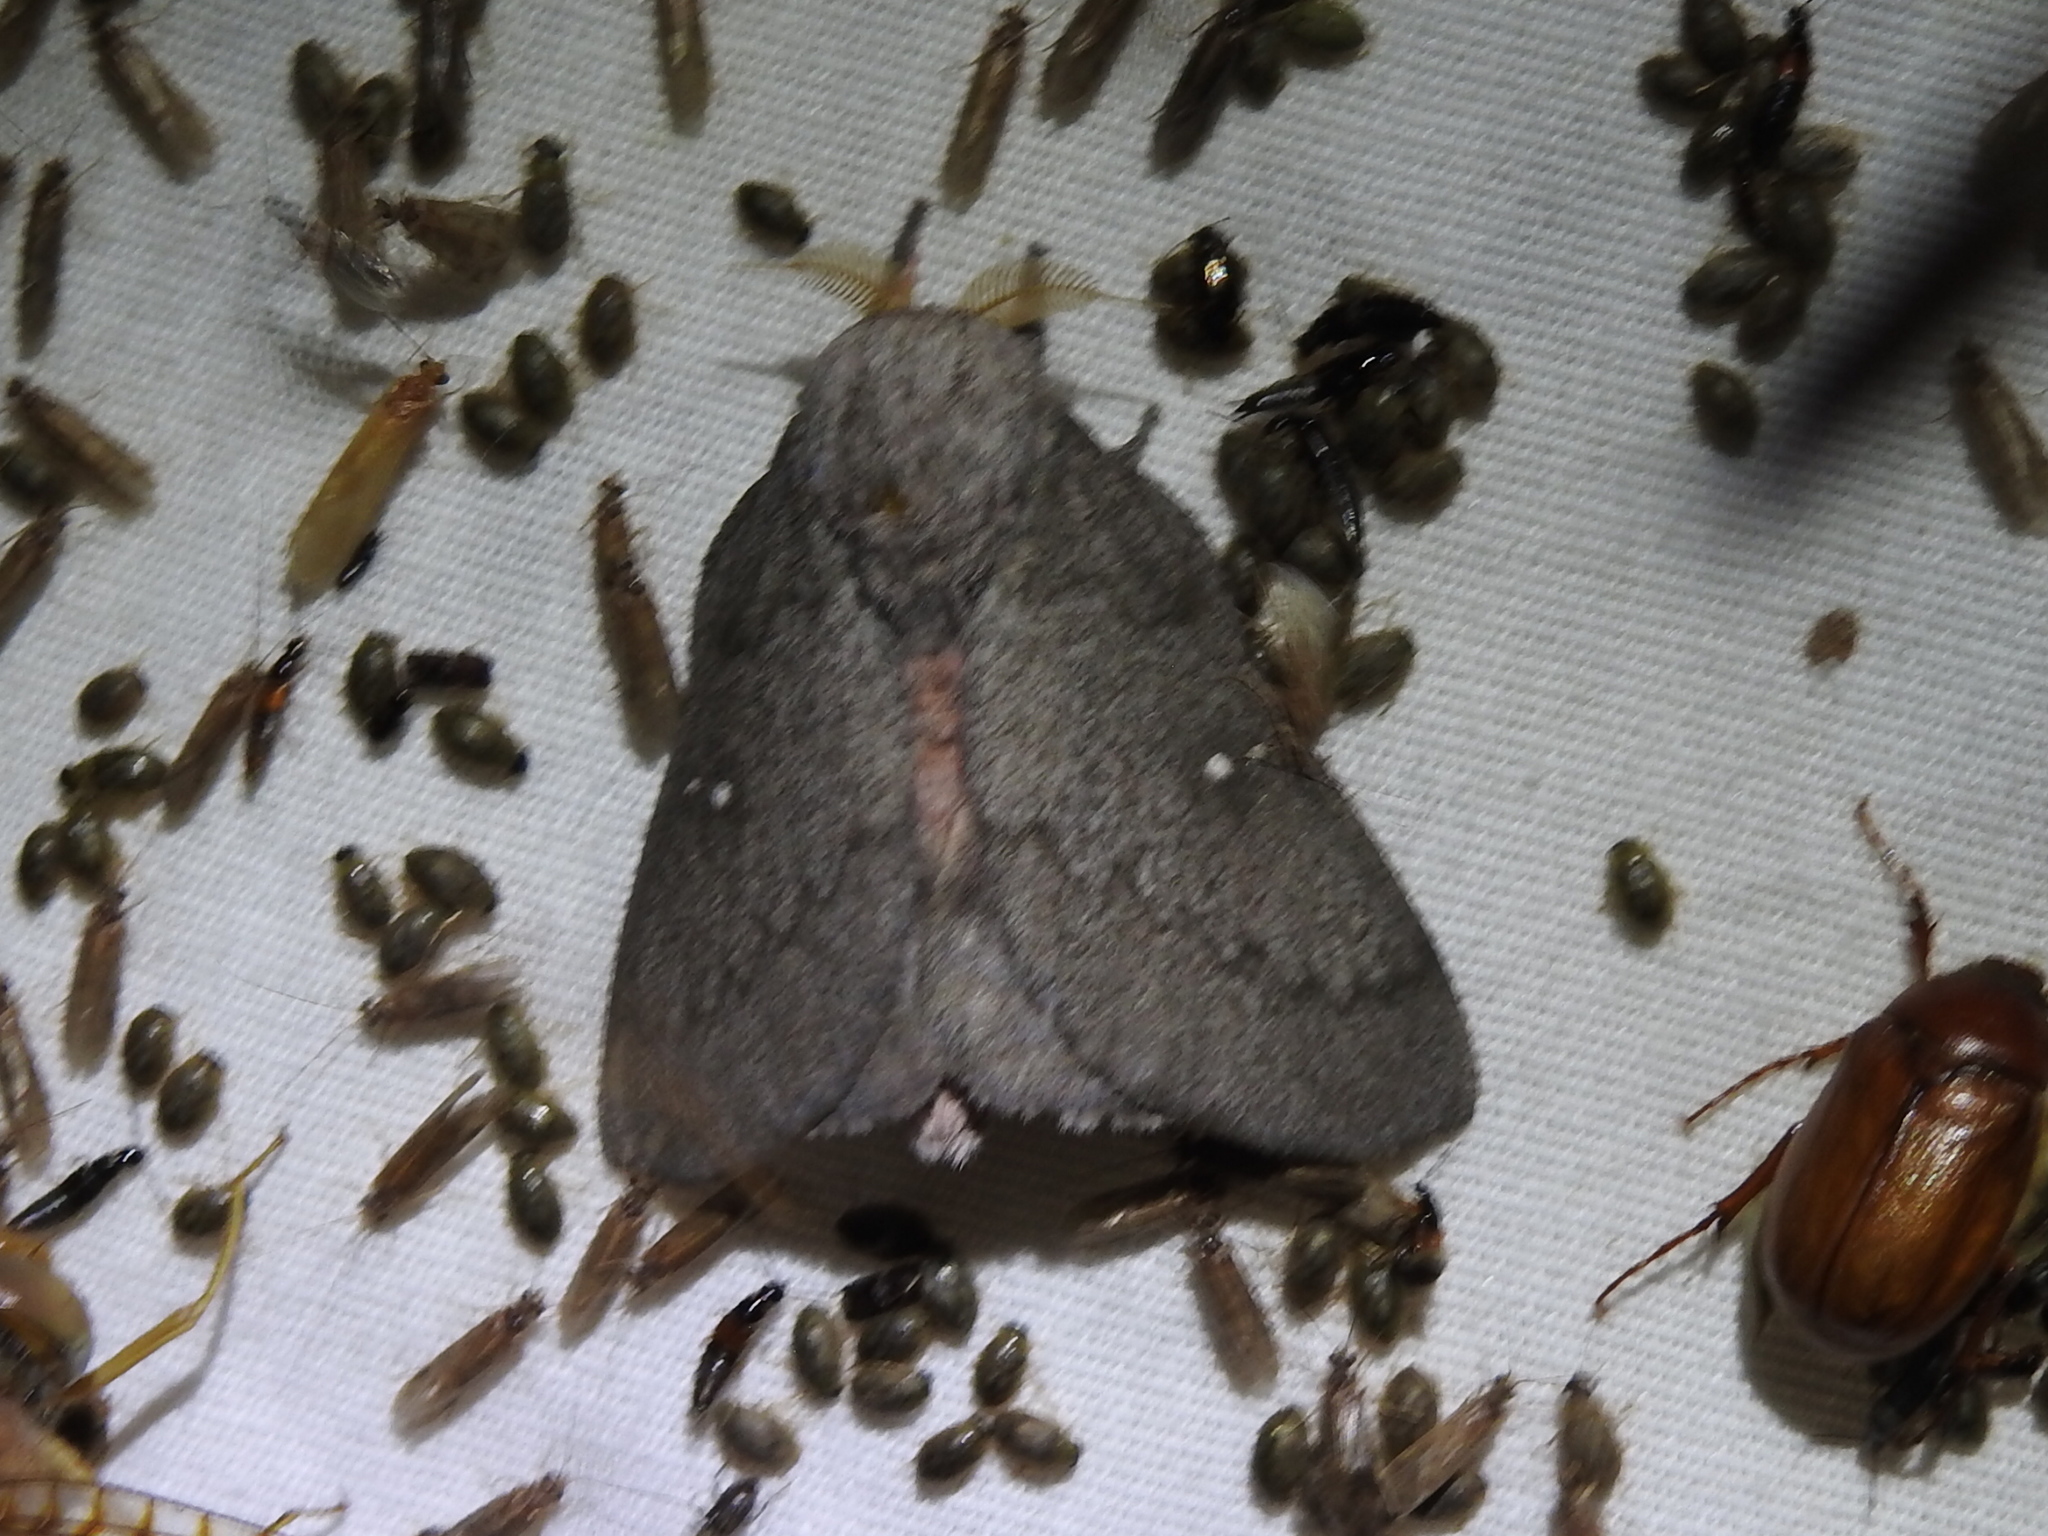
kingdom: Animalia
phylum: Arthropoda
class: Insecta
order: Lepidoptera
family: Saturniidae
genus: Syssphinx
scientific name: Syssphinx heiligbrodti
